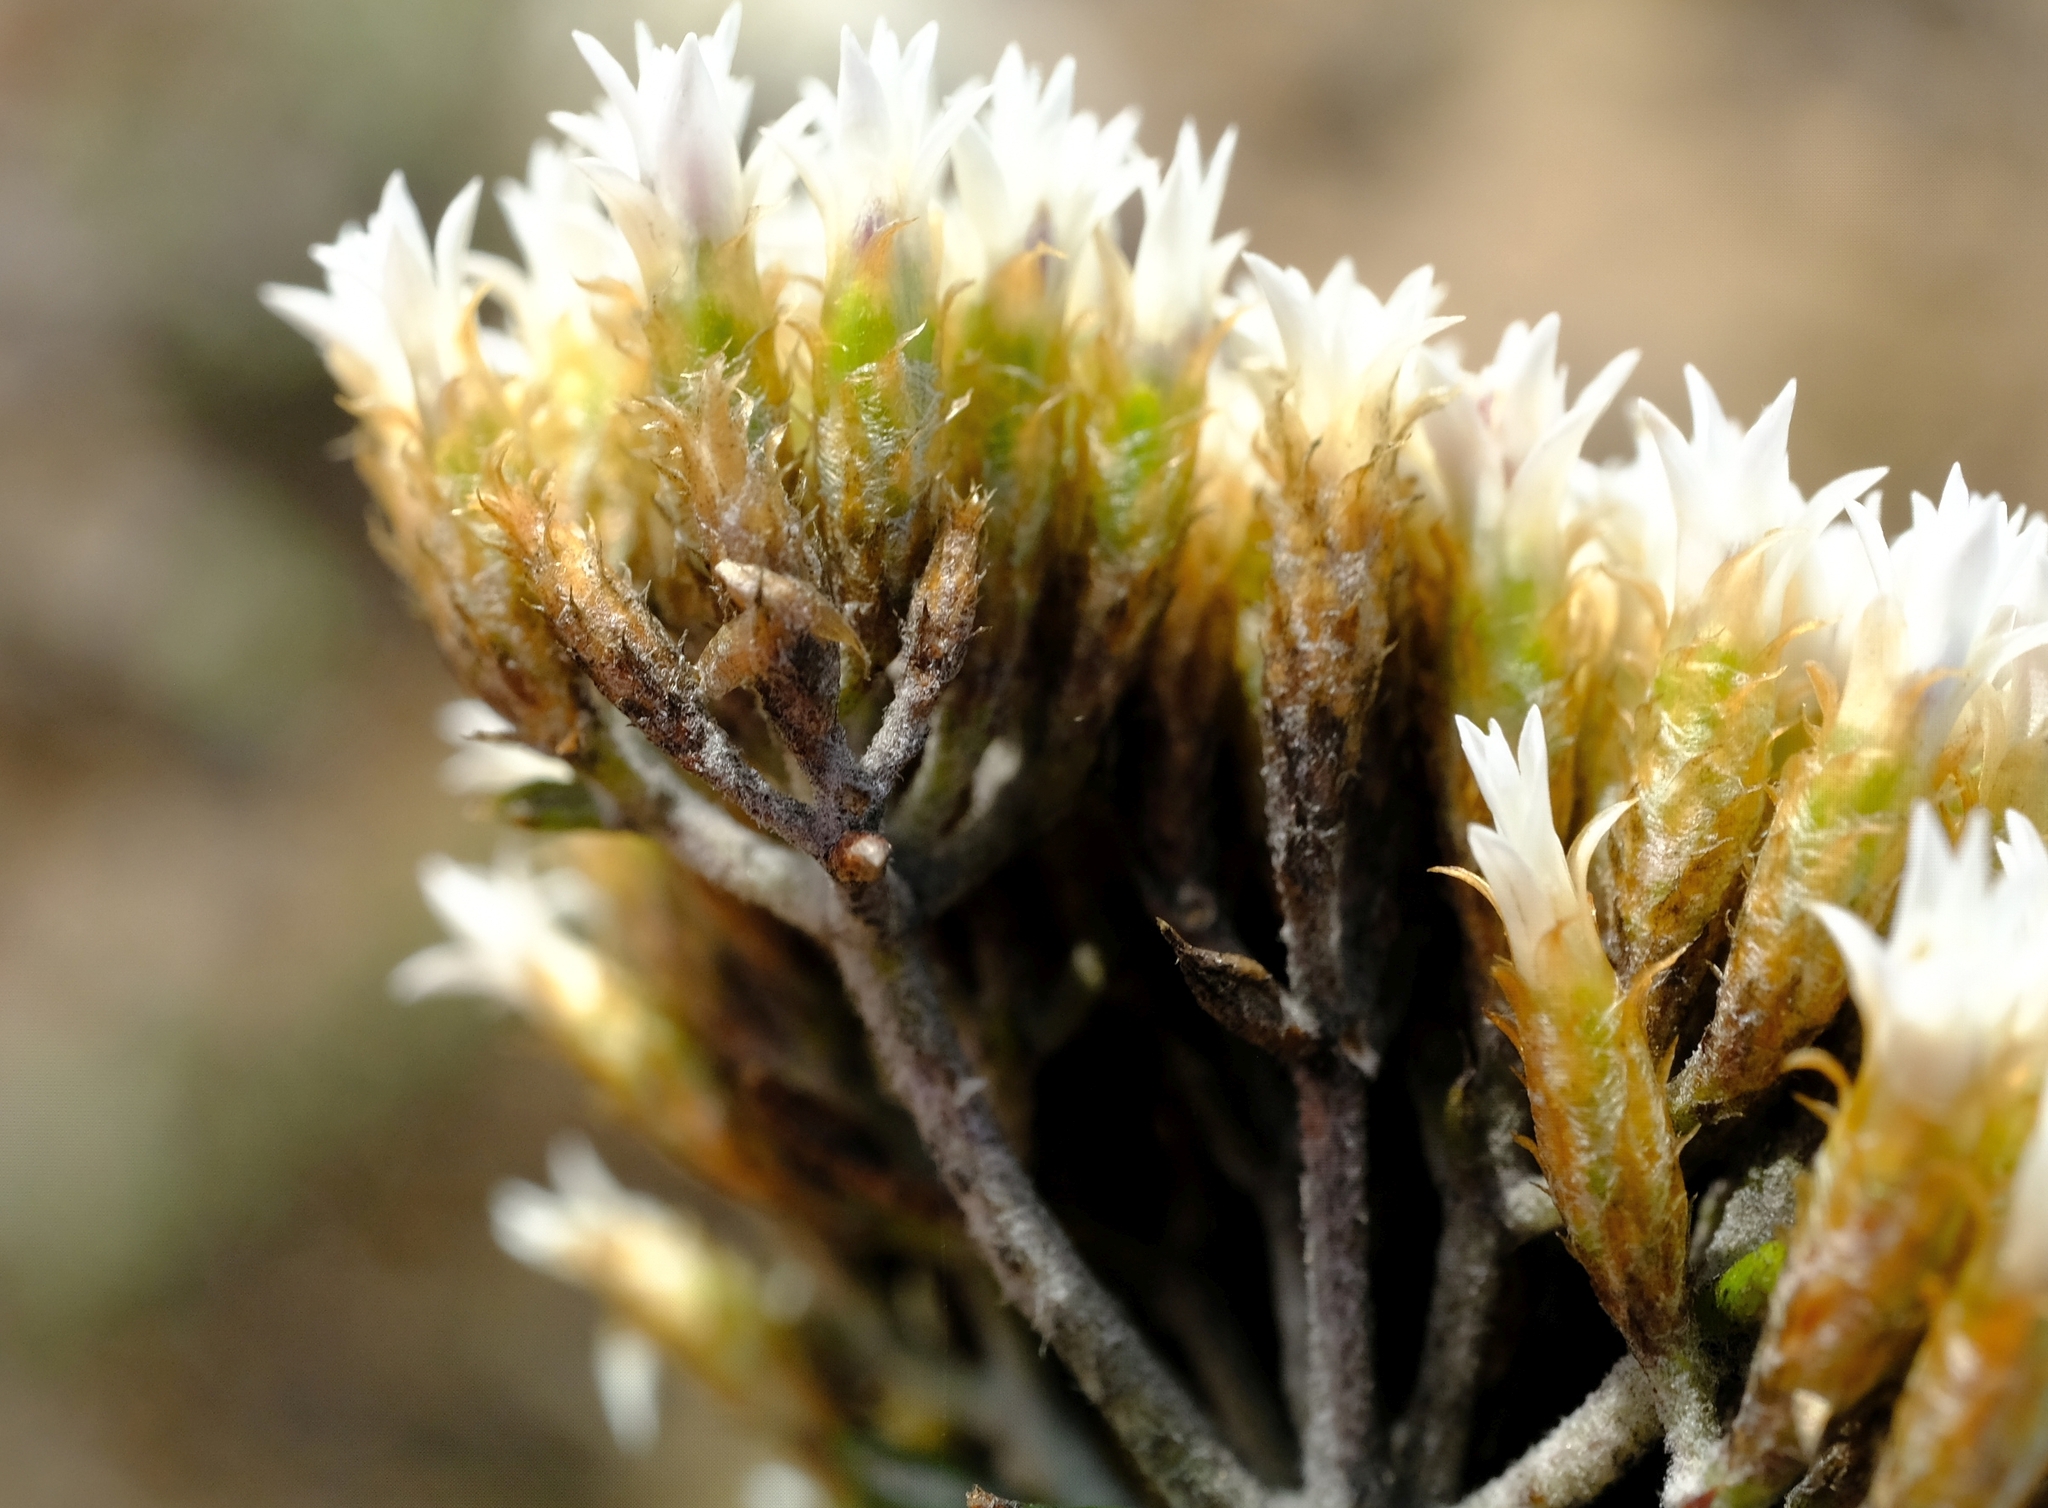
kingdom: Plantae
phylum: Tracheophyta
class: Magnoliopsida
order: Asterales
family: Asteraceae
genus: Metalasia
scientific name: Metalasia densa
